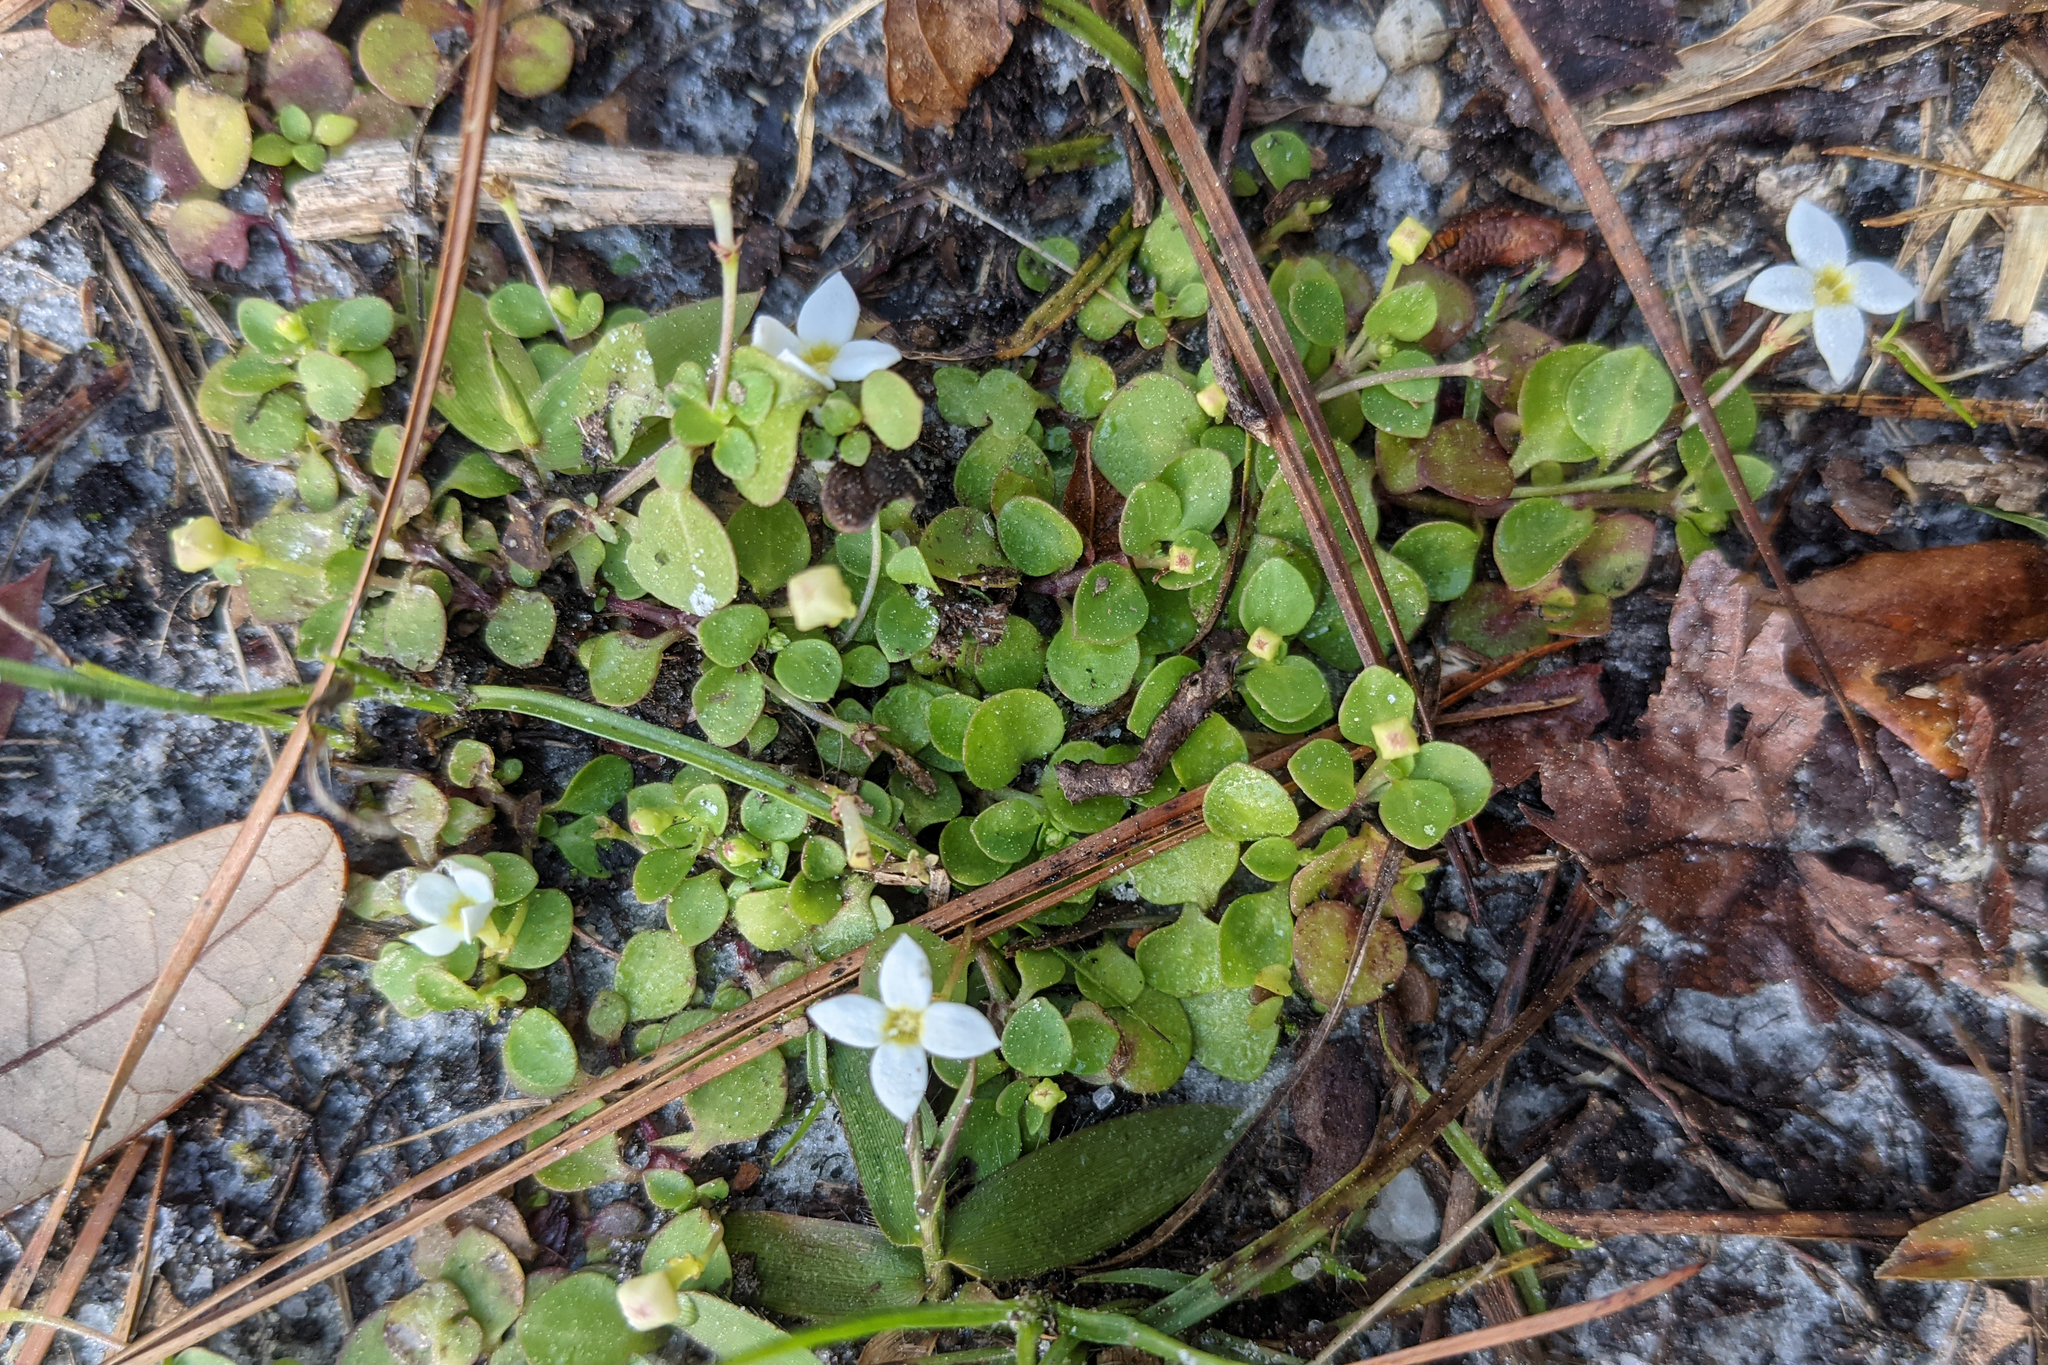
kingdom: Plantae
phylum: Tracheophyta
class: Magnoliopsida
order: Gentianales
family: Rubiaceae
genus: Houstonia
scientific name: Houstonia procumbens
